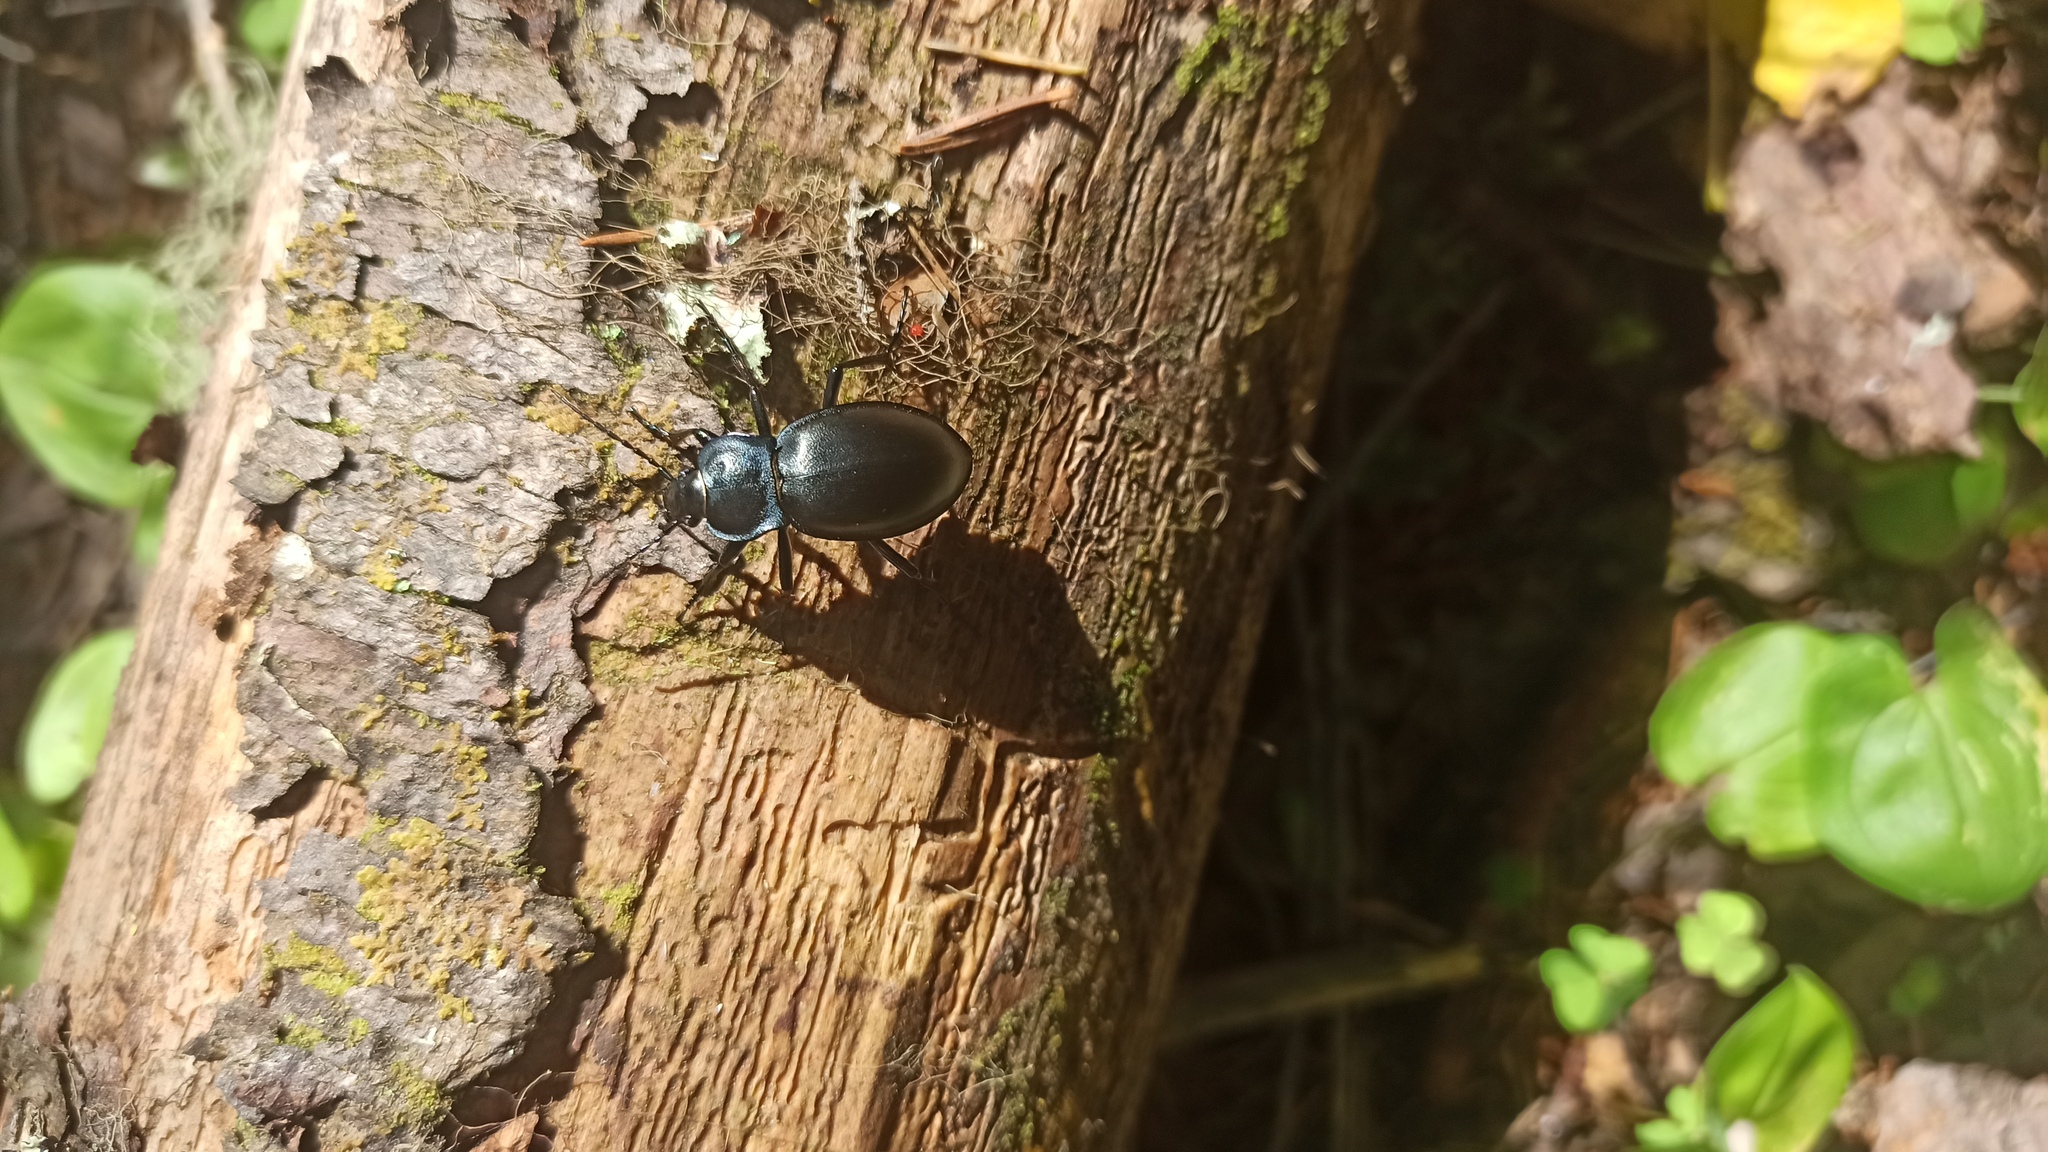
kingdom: Animalia
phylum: Arthropoda
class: Insecta
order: Coleoptera
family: Carabidae
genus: Carabus
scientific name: Carabus glabratus
